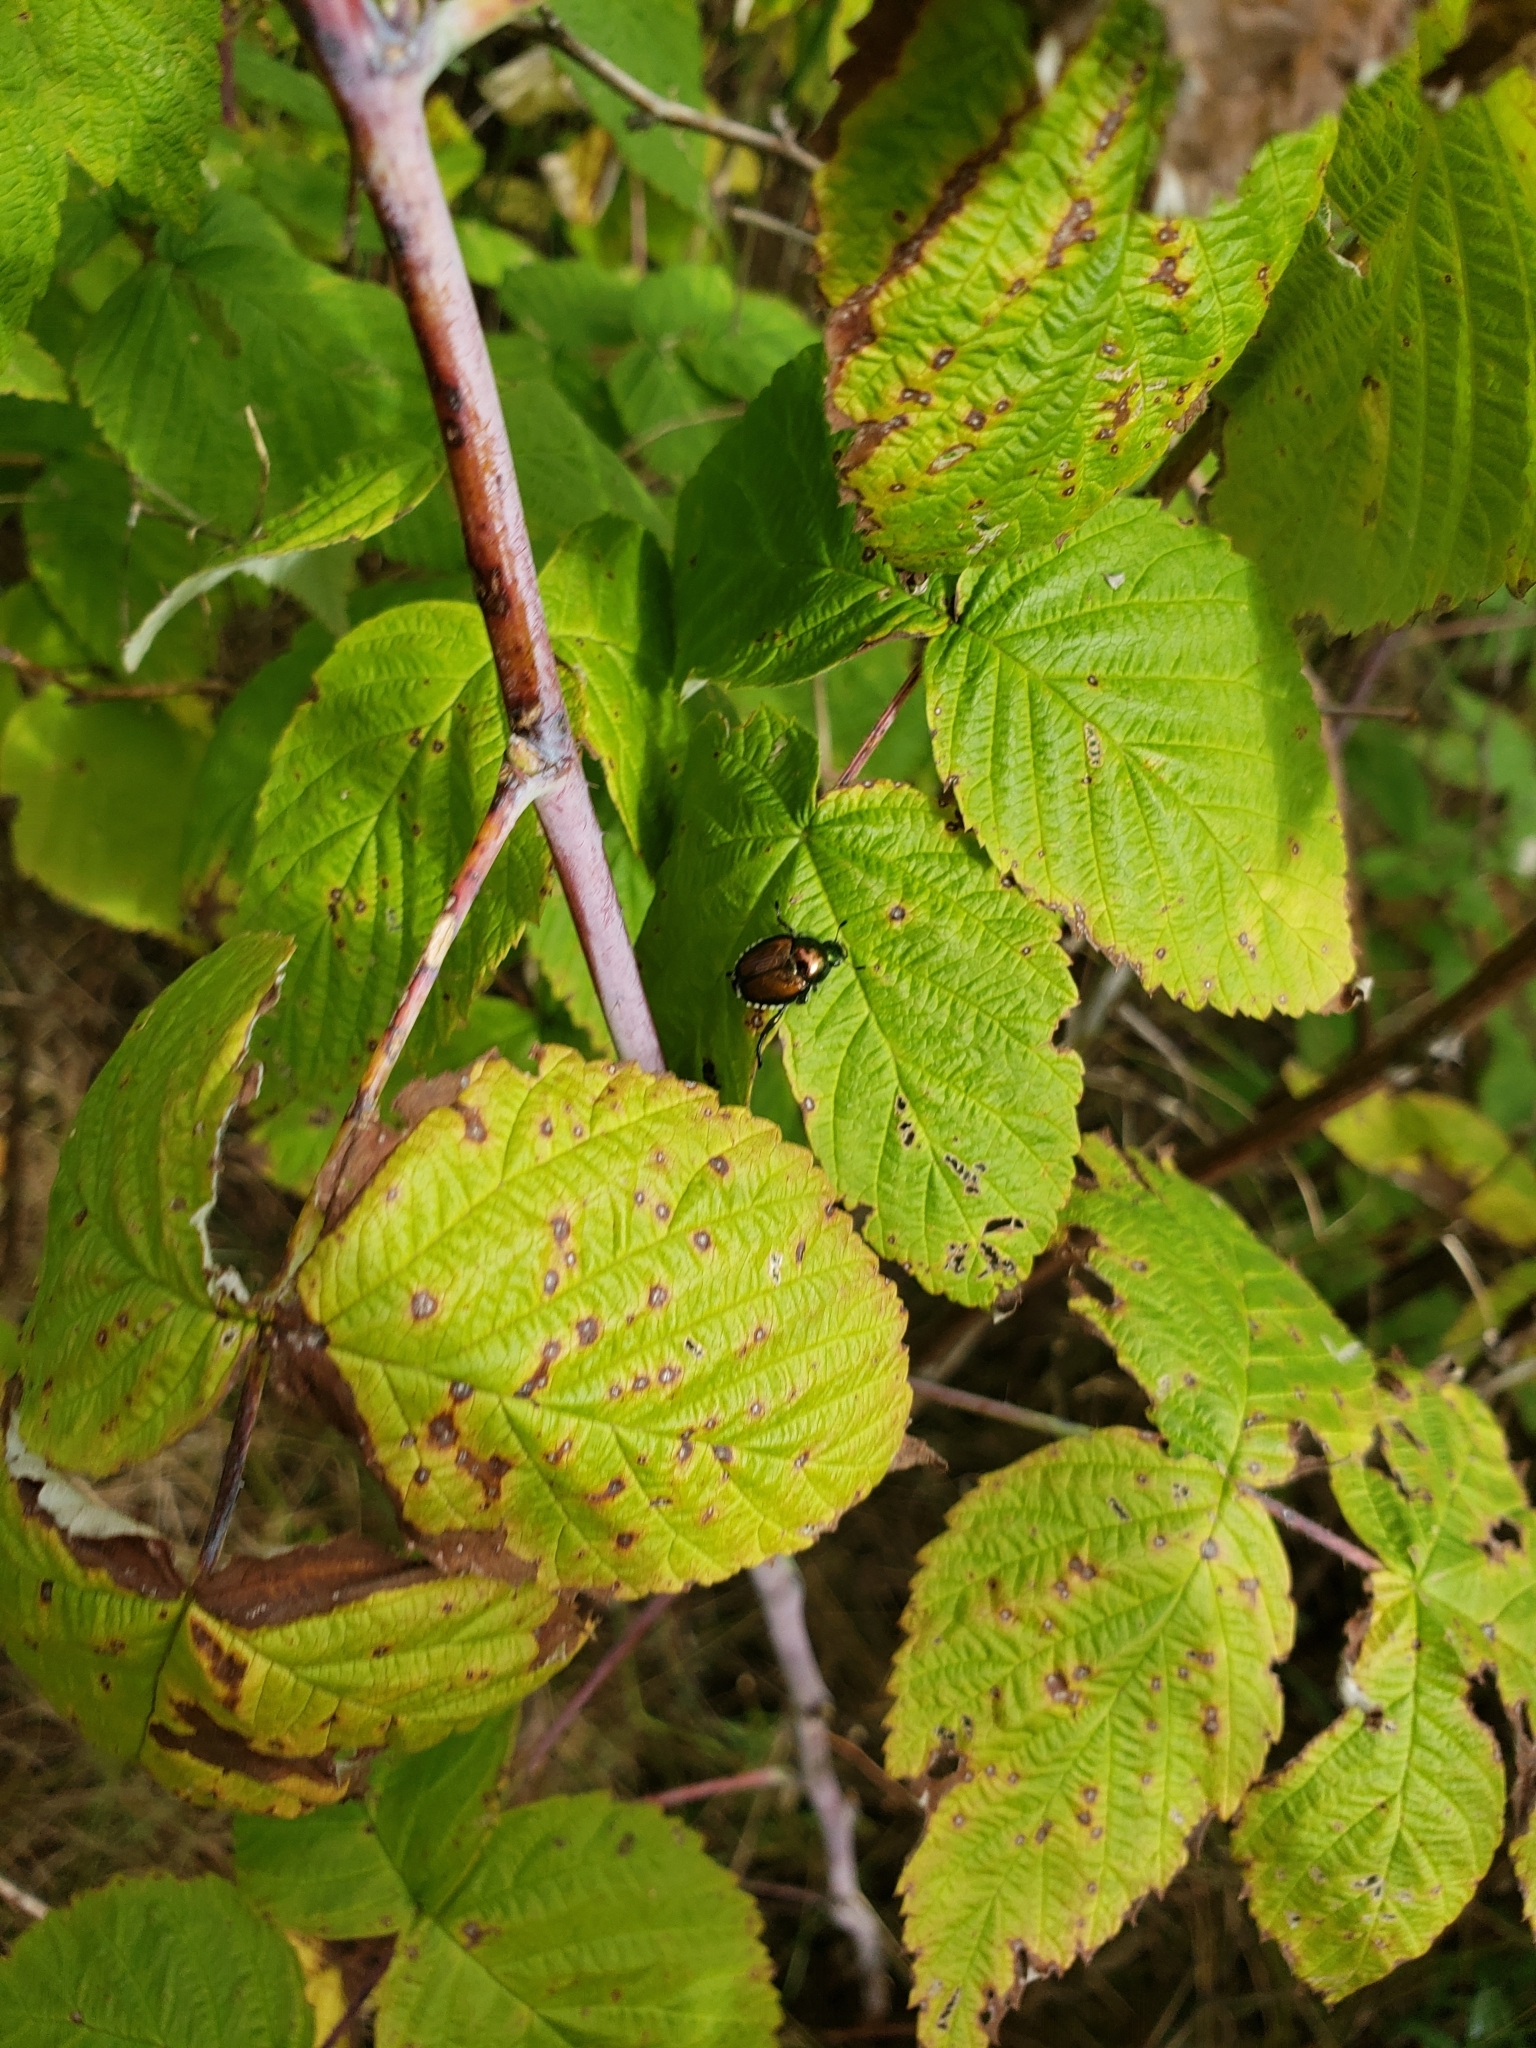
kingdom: Animalia
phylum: Arthropoda
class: Insecta
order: Coleoptera
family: Scarabaeidae
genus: Popillia
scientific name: Popillia japonica
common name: Japanese beetle
